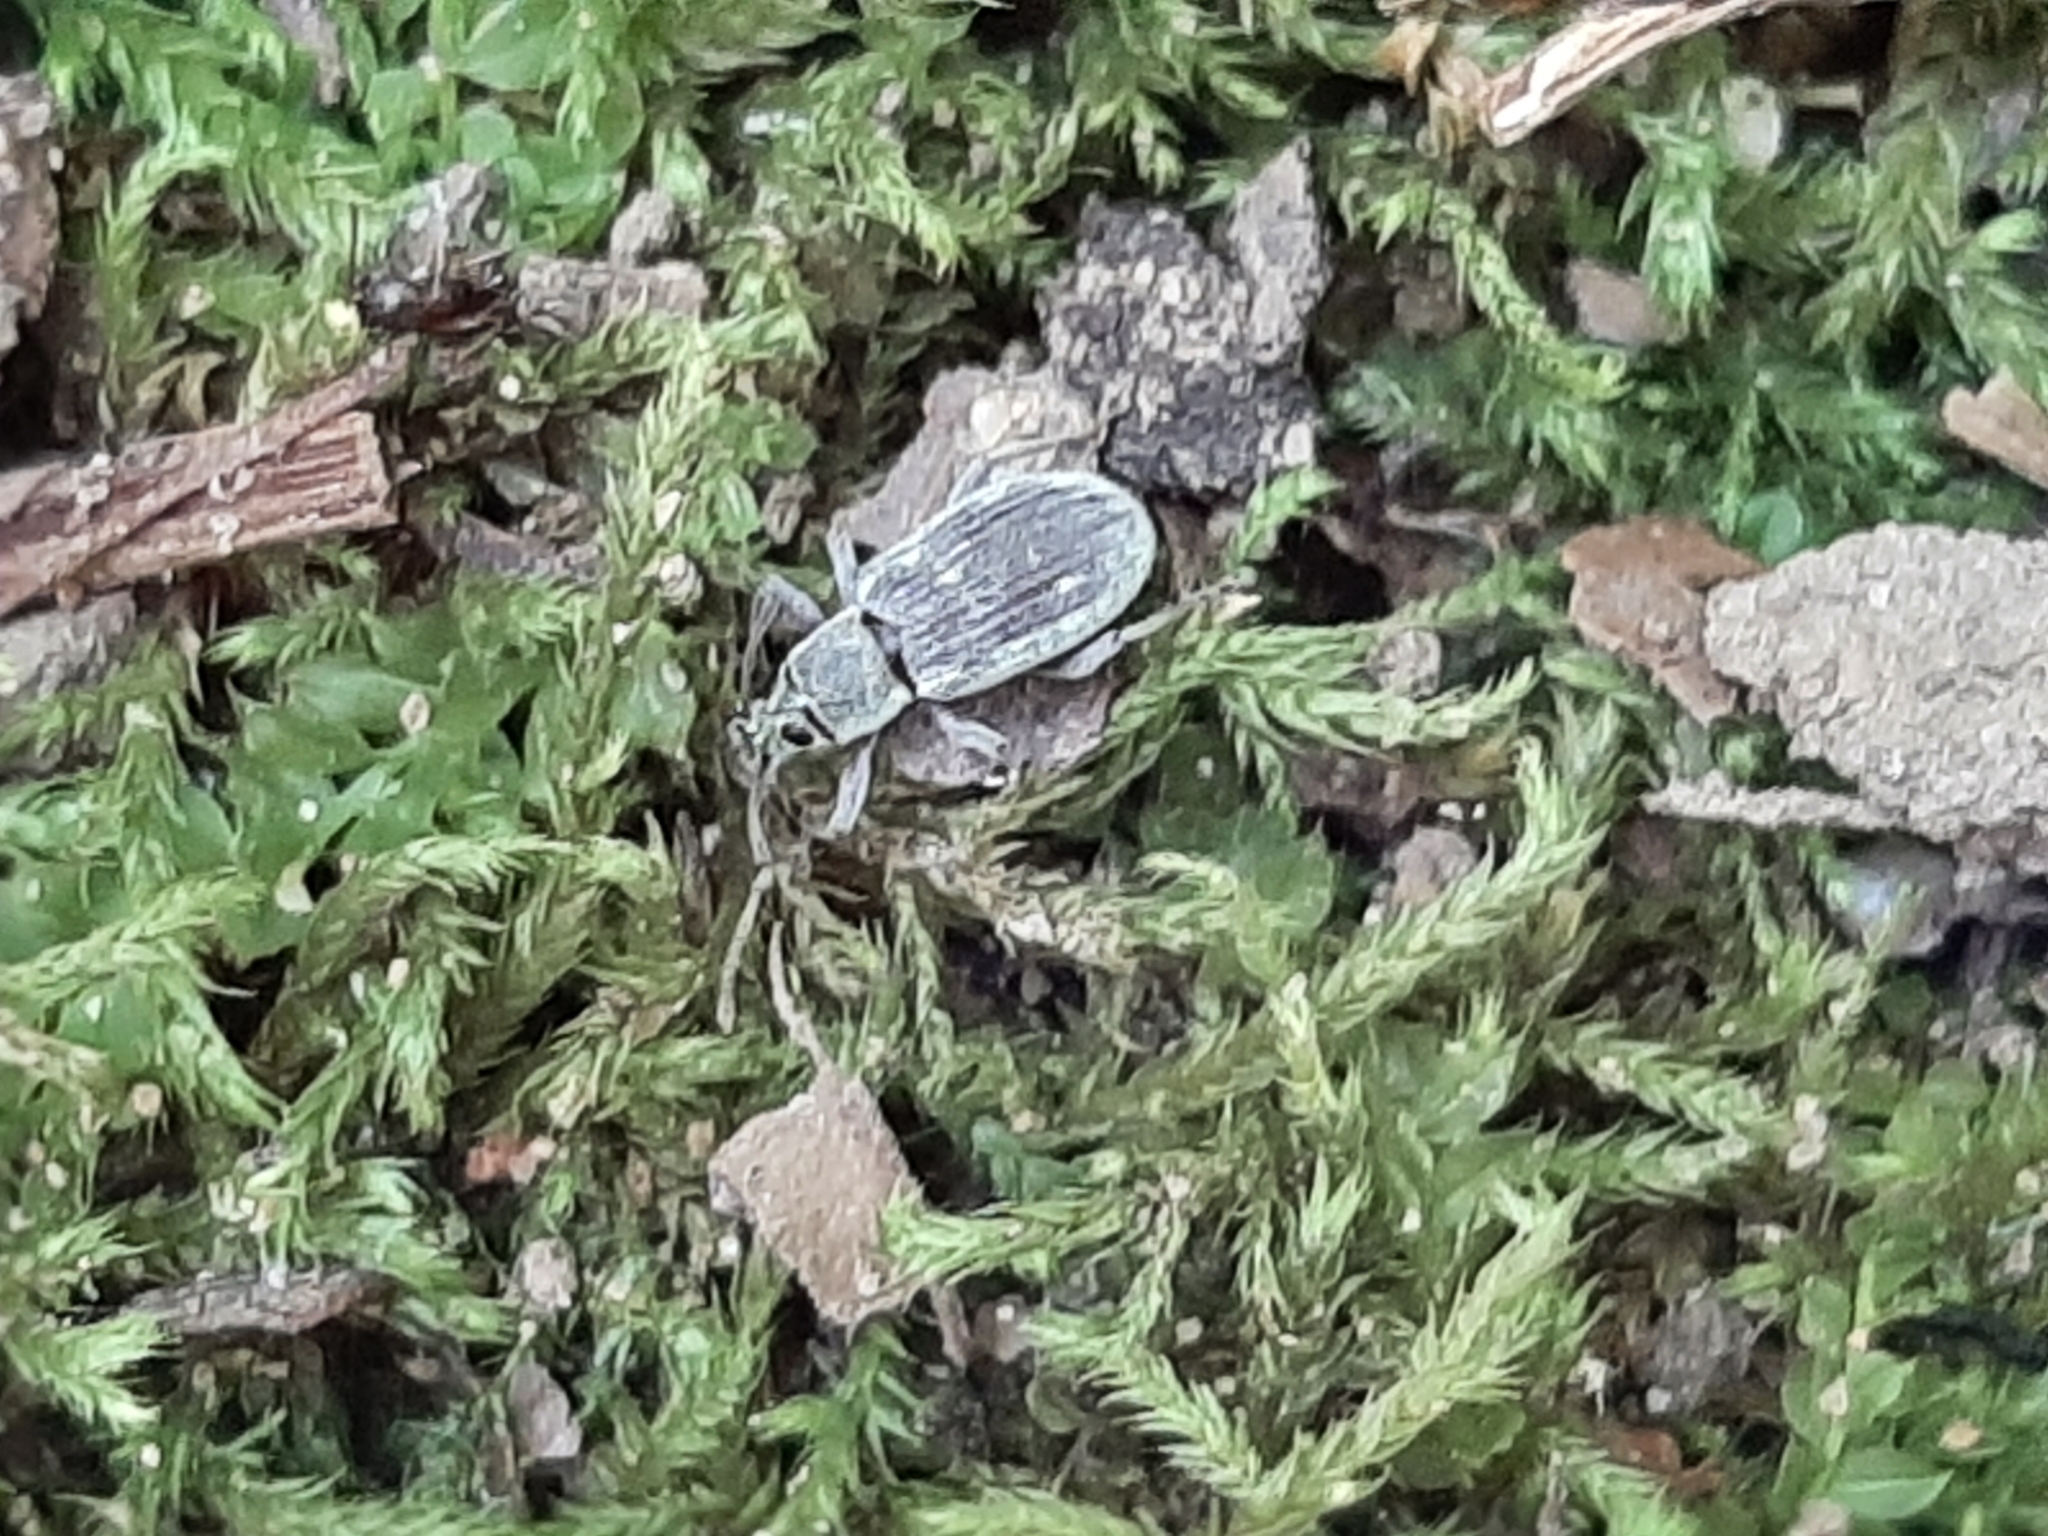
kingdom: Animalia
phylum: Arthropoda
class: Insecta
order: Coleoptera
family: Curculionidae
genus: Cyrtepistomus
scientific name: Cyrtepistomus castaneus
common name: Weevil
